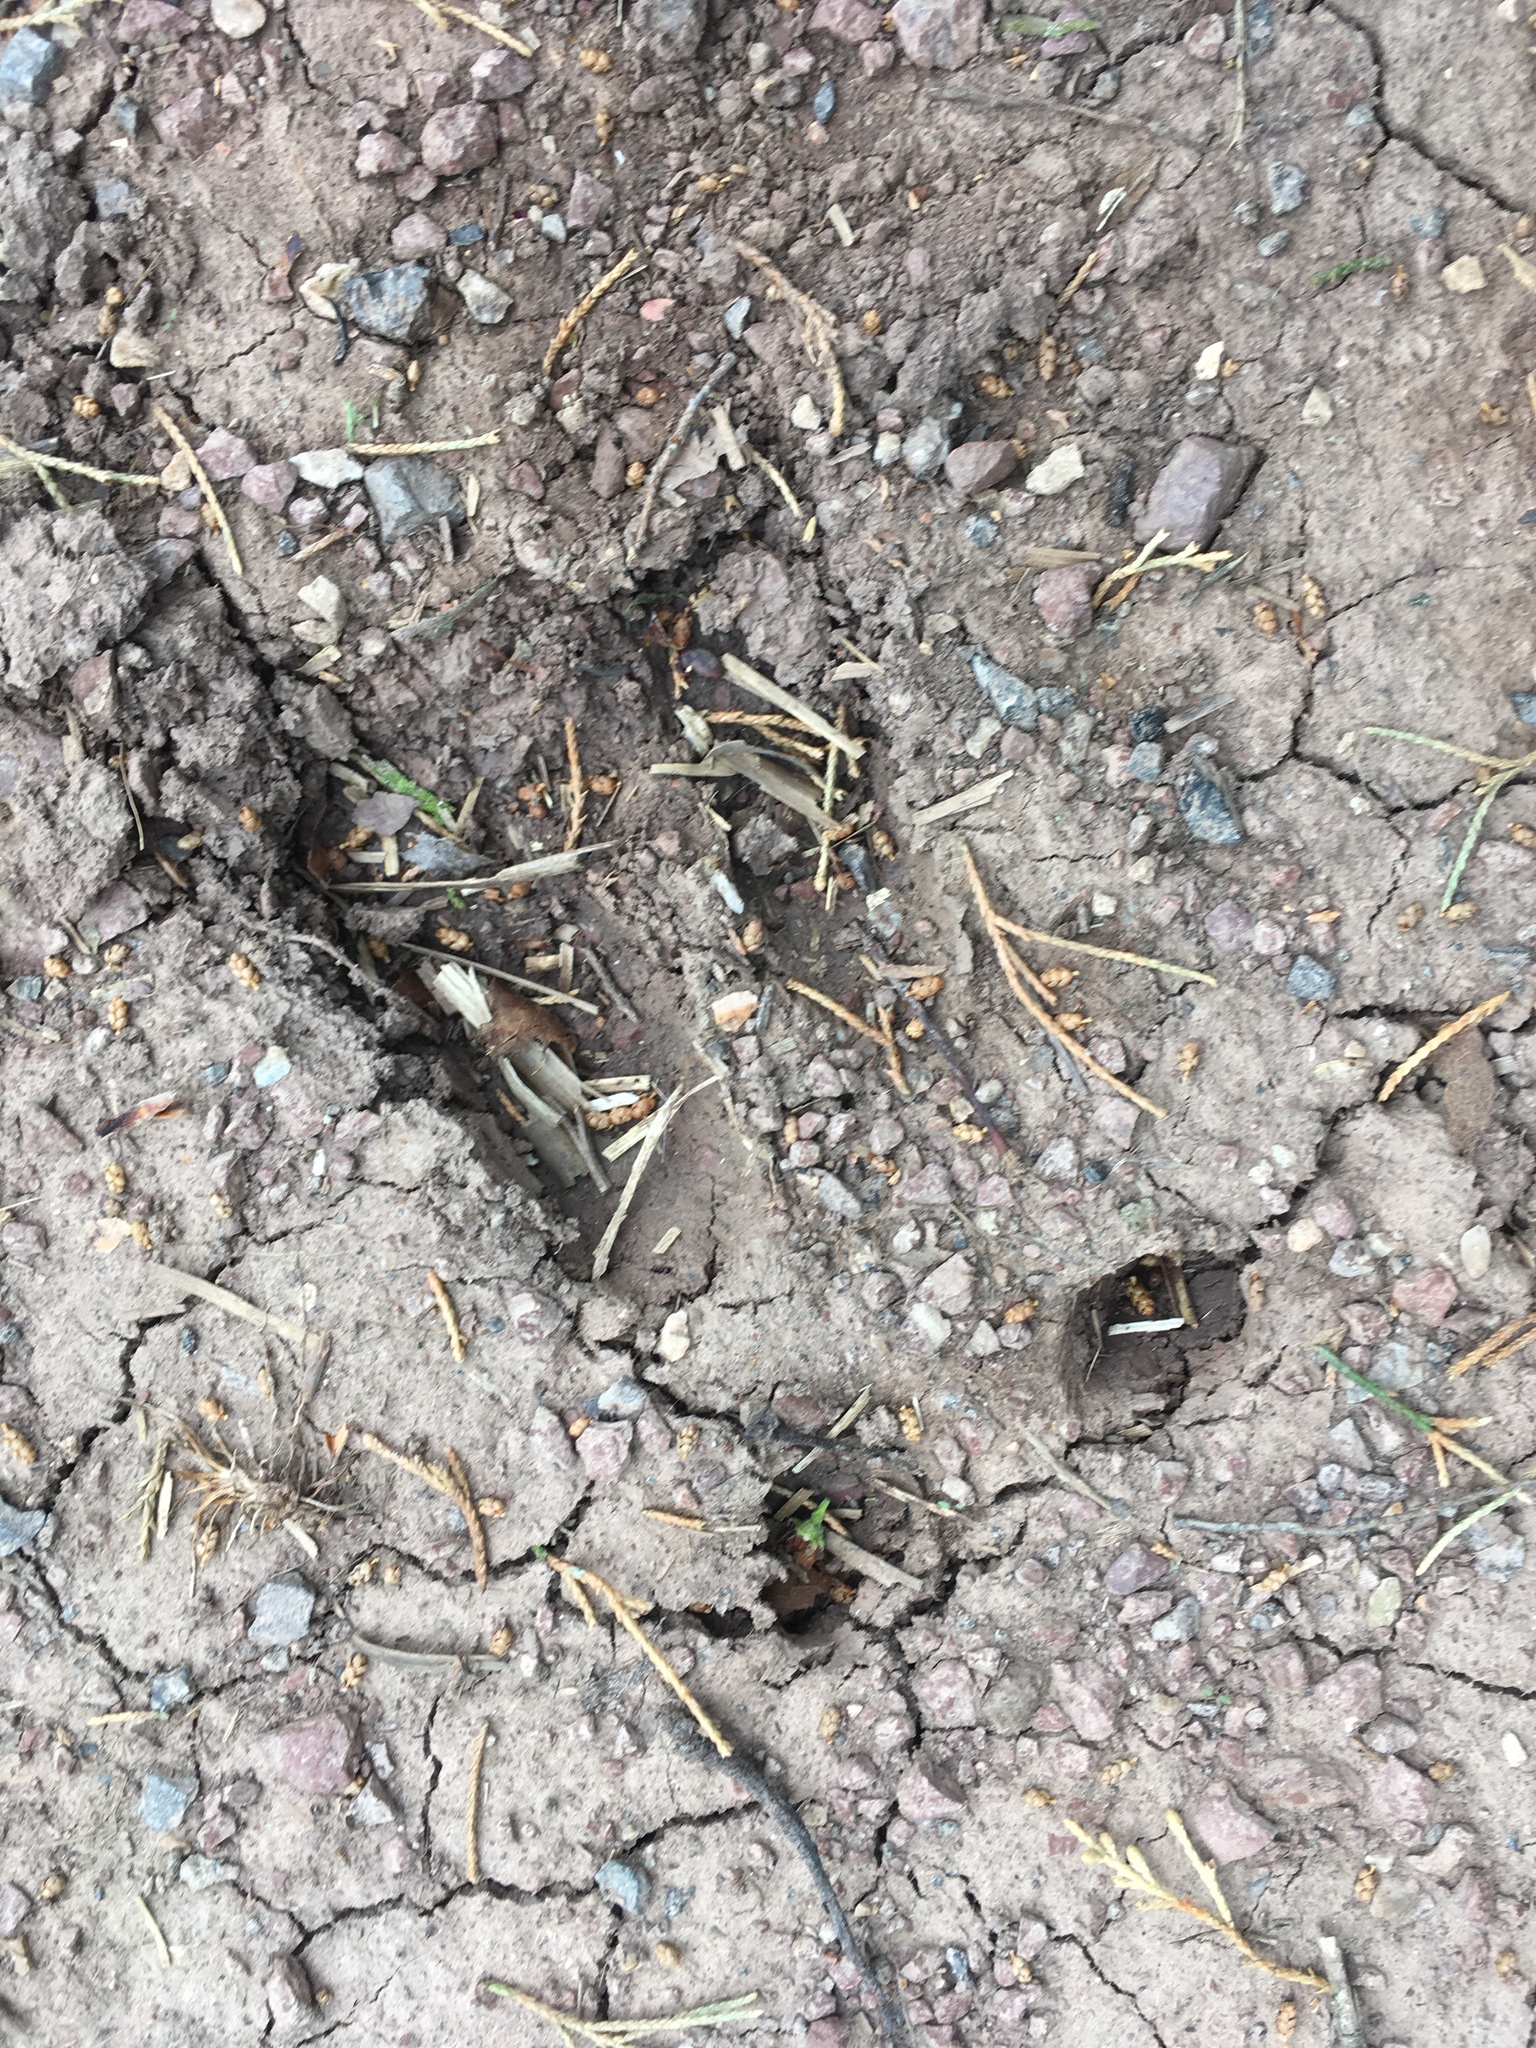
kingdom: Animalia
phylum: Chordata
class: Mammalia
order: Artiodactyla
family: Cervidae
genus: Odocoileus
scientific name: Odocoileus virginianus
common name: White-tailed deer
